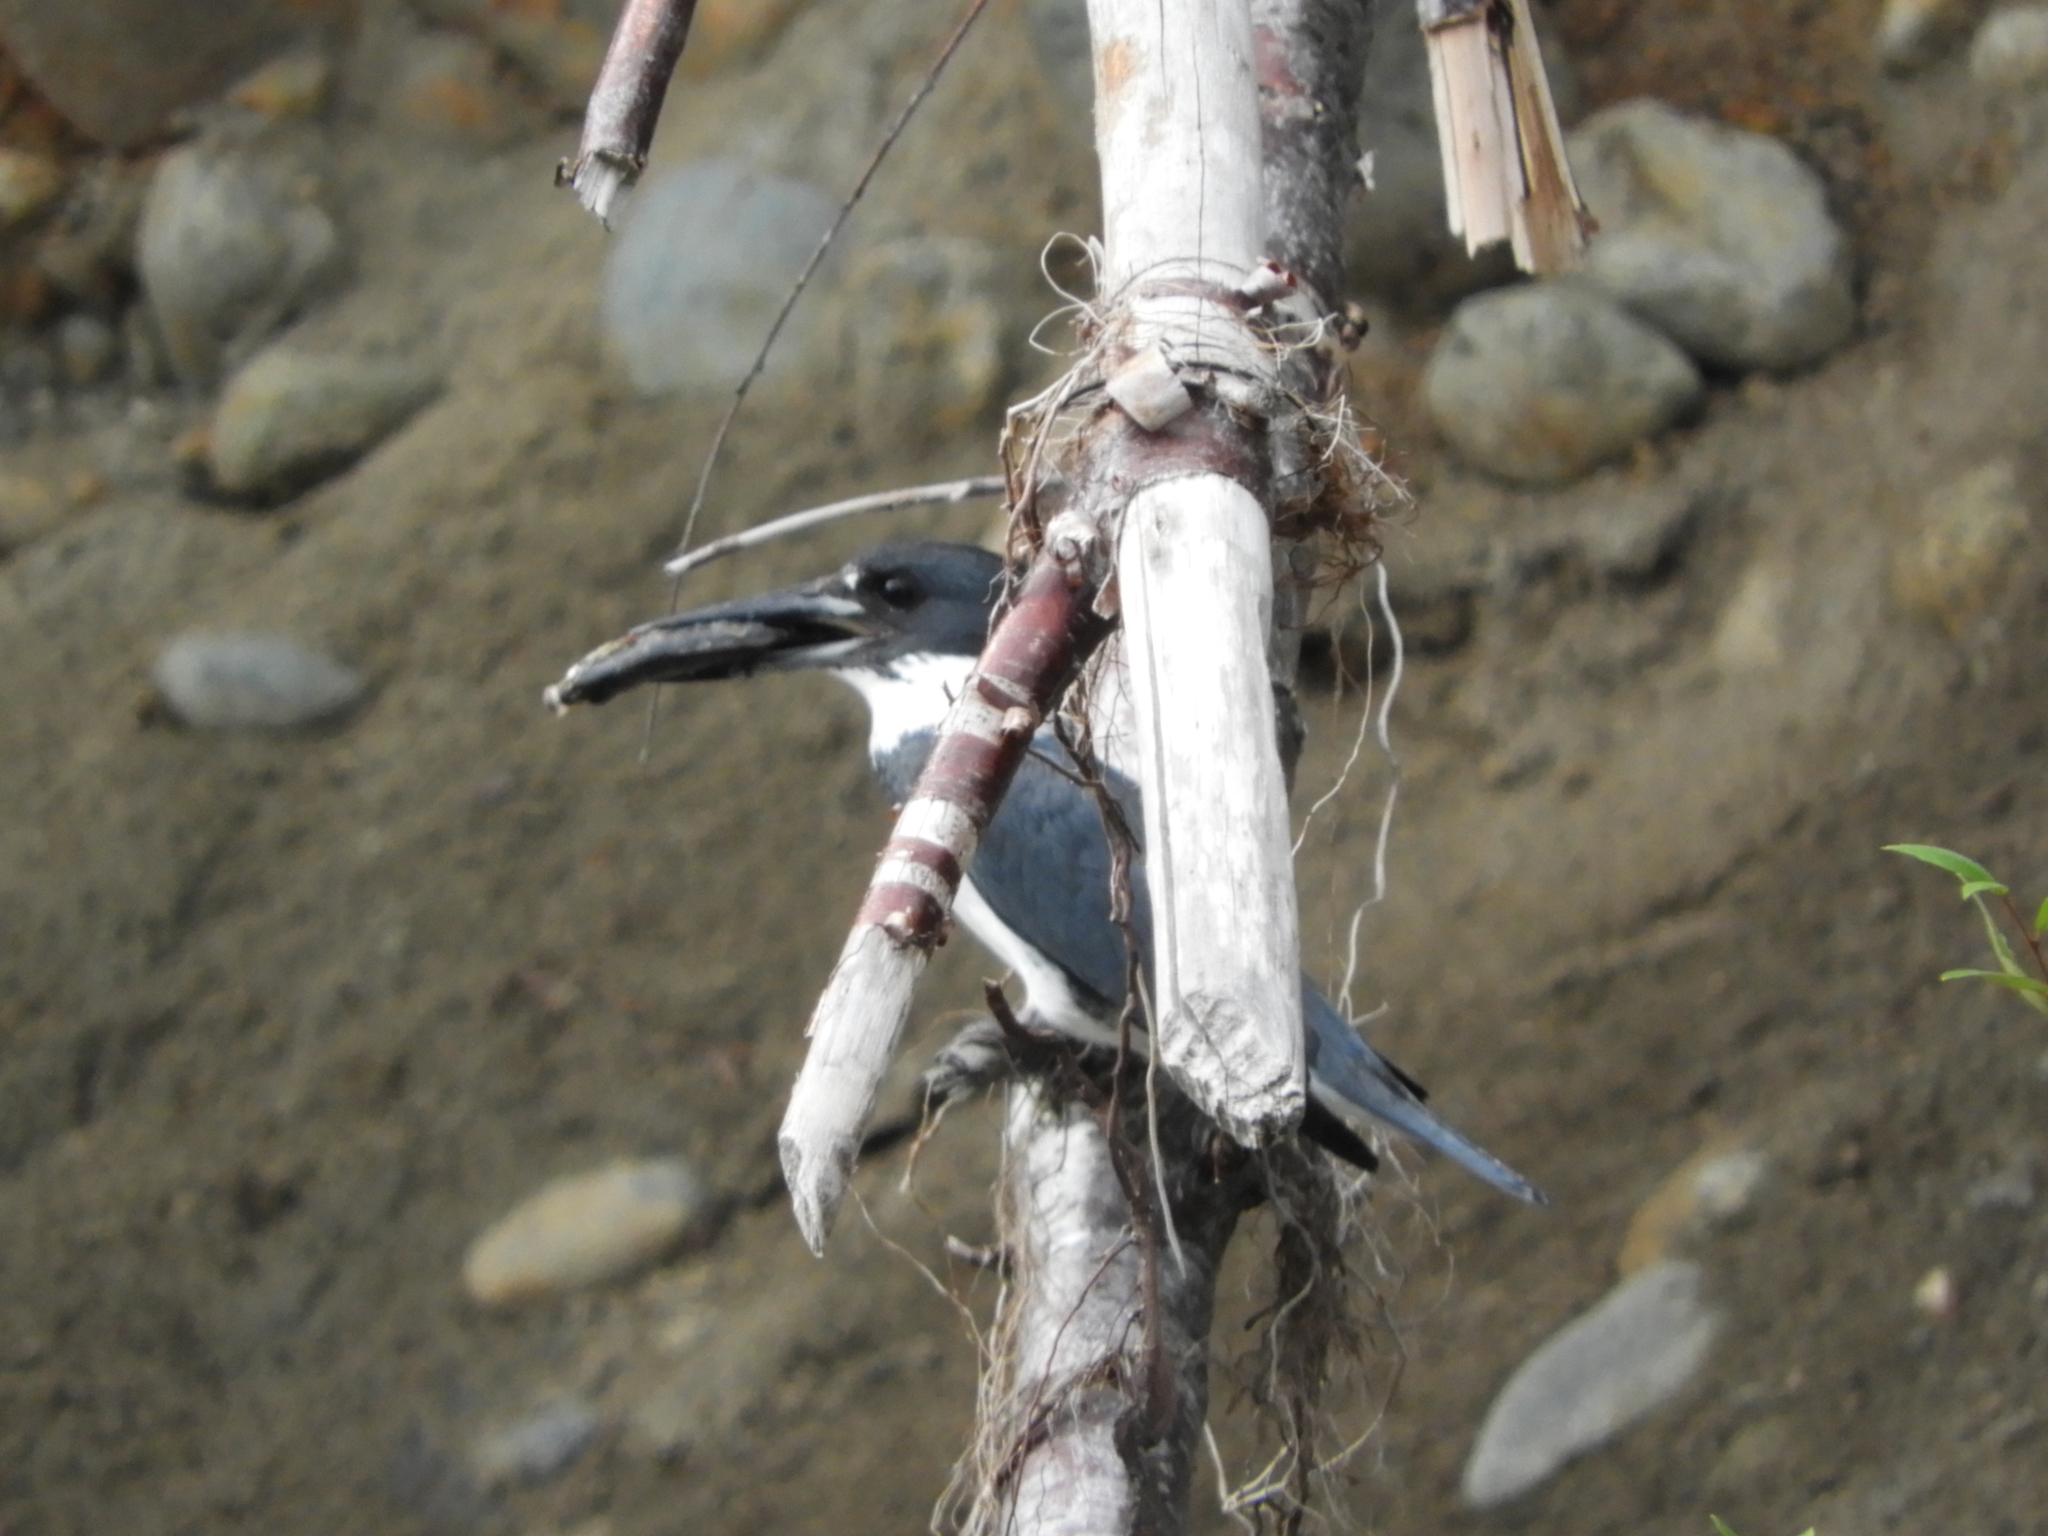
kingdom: Animalia
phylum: Chordata
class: Aves
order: Coraciiformes
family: Alcedinidae
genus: Megaceryle
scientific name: Megaceryle alcyon
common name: Belted kingfisher
